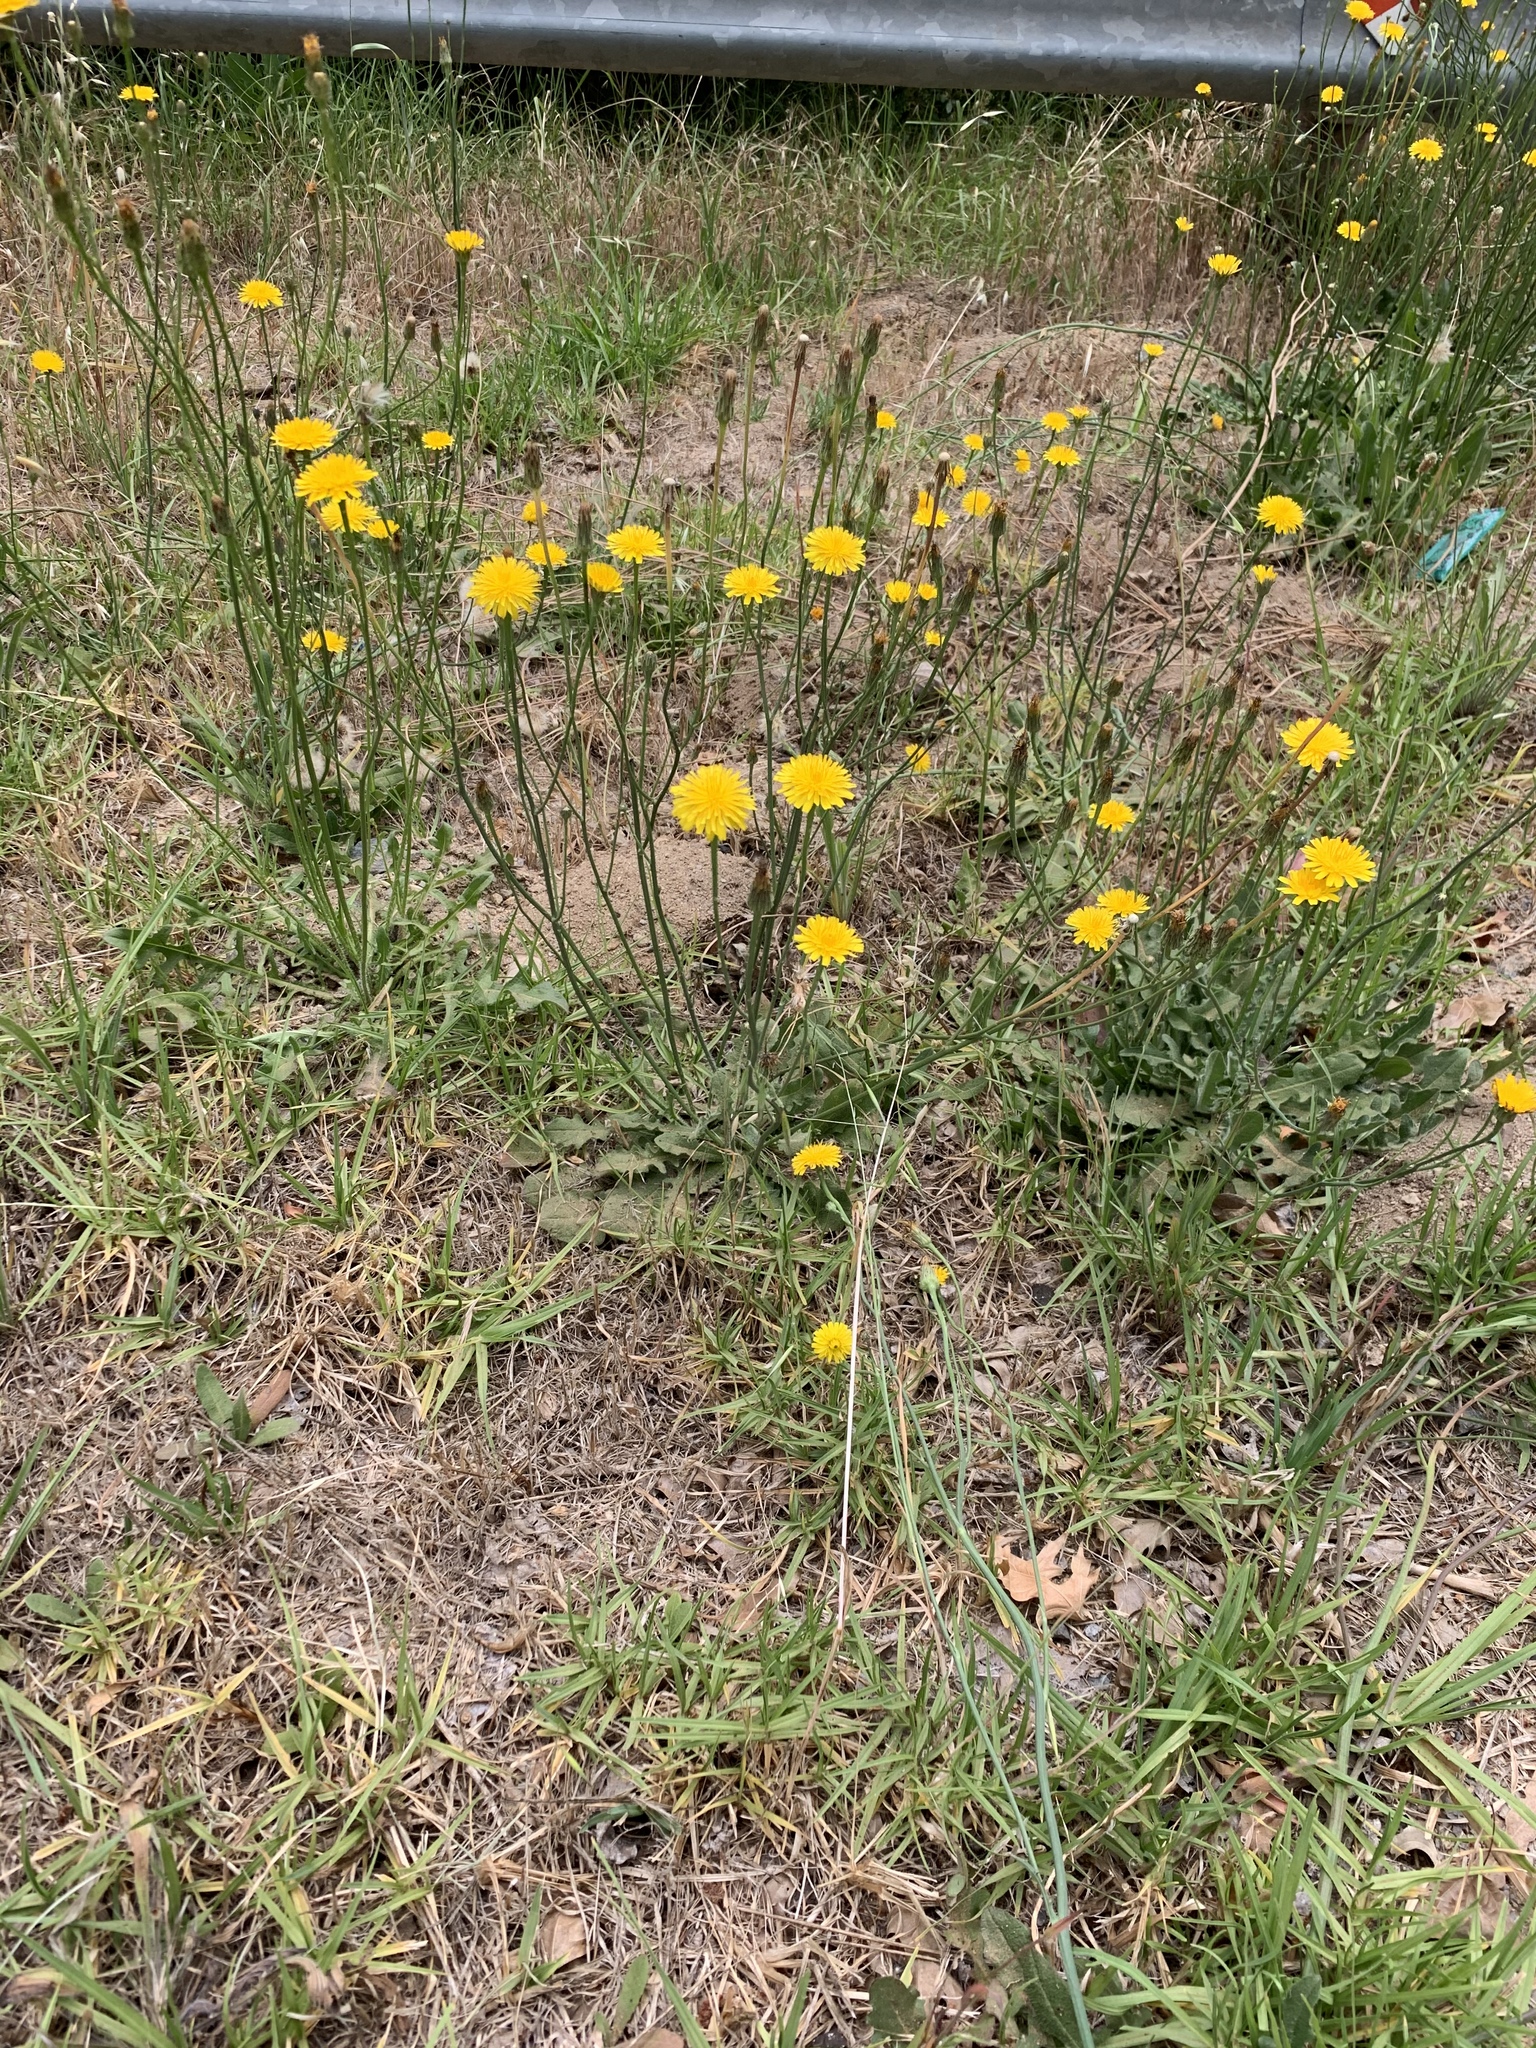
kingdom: Plantae
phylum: Tracheophyta
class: Magnoliopsida
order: Asterales
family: Asteraceae
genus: Hypochaeris
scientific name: Hypochaeris radicata
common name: Flatweed
